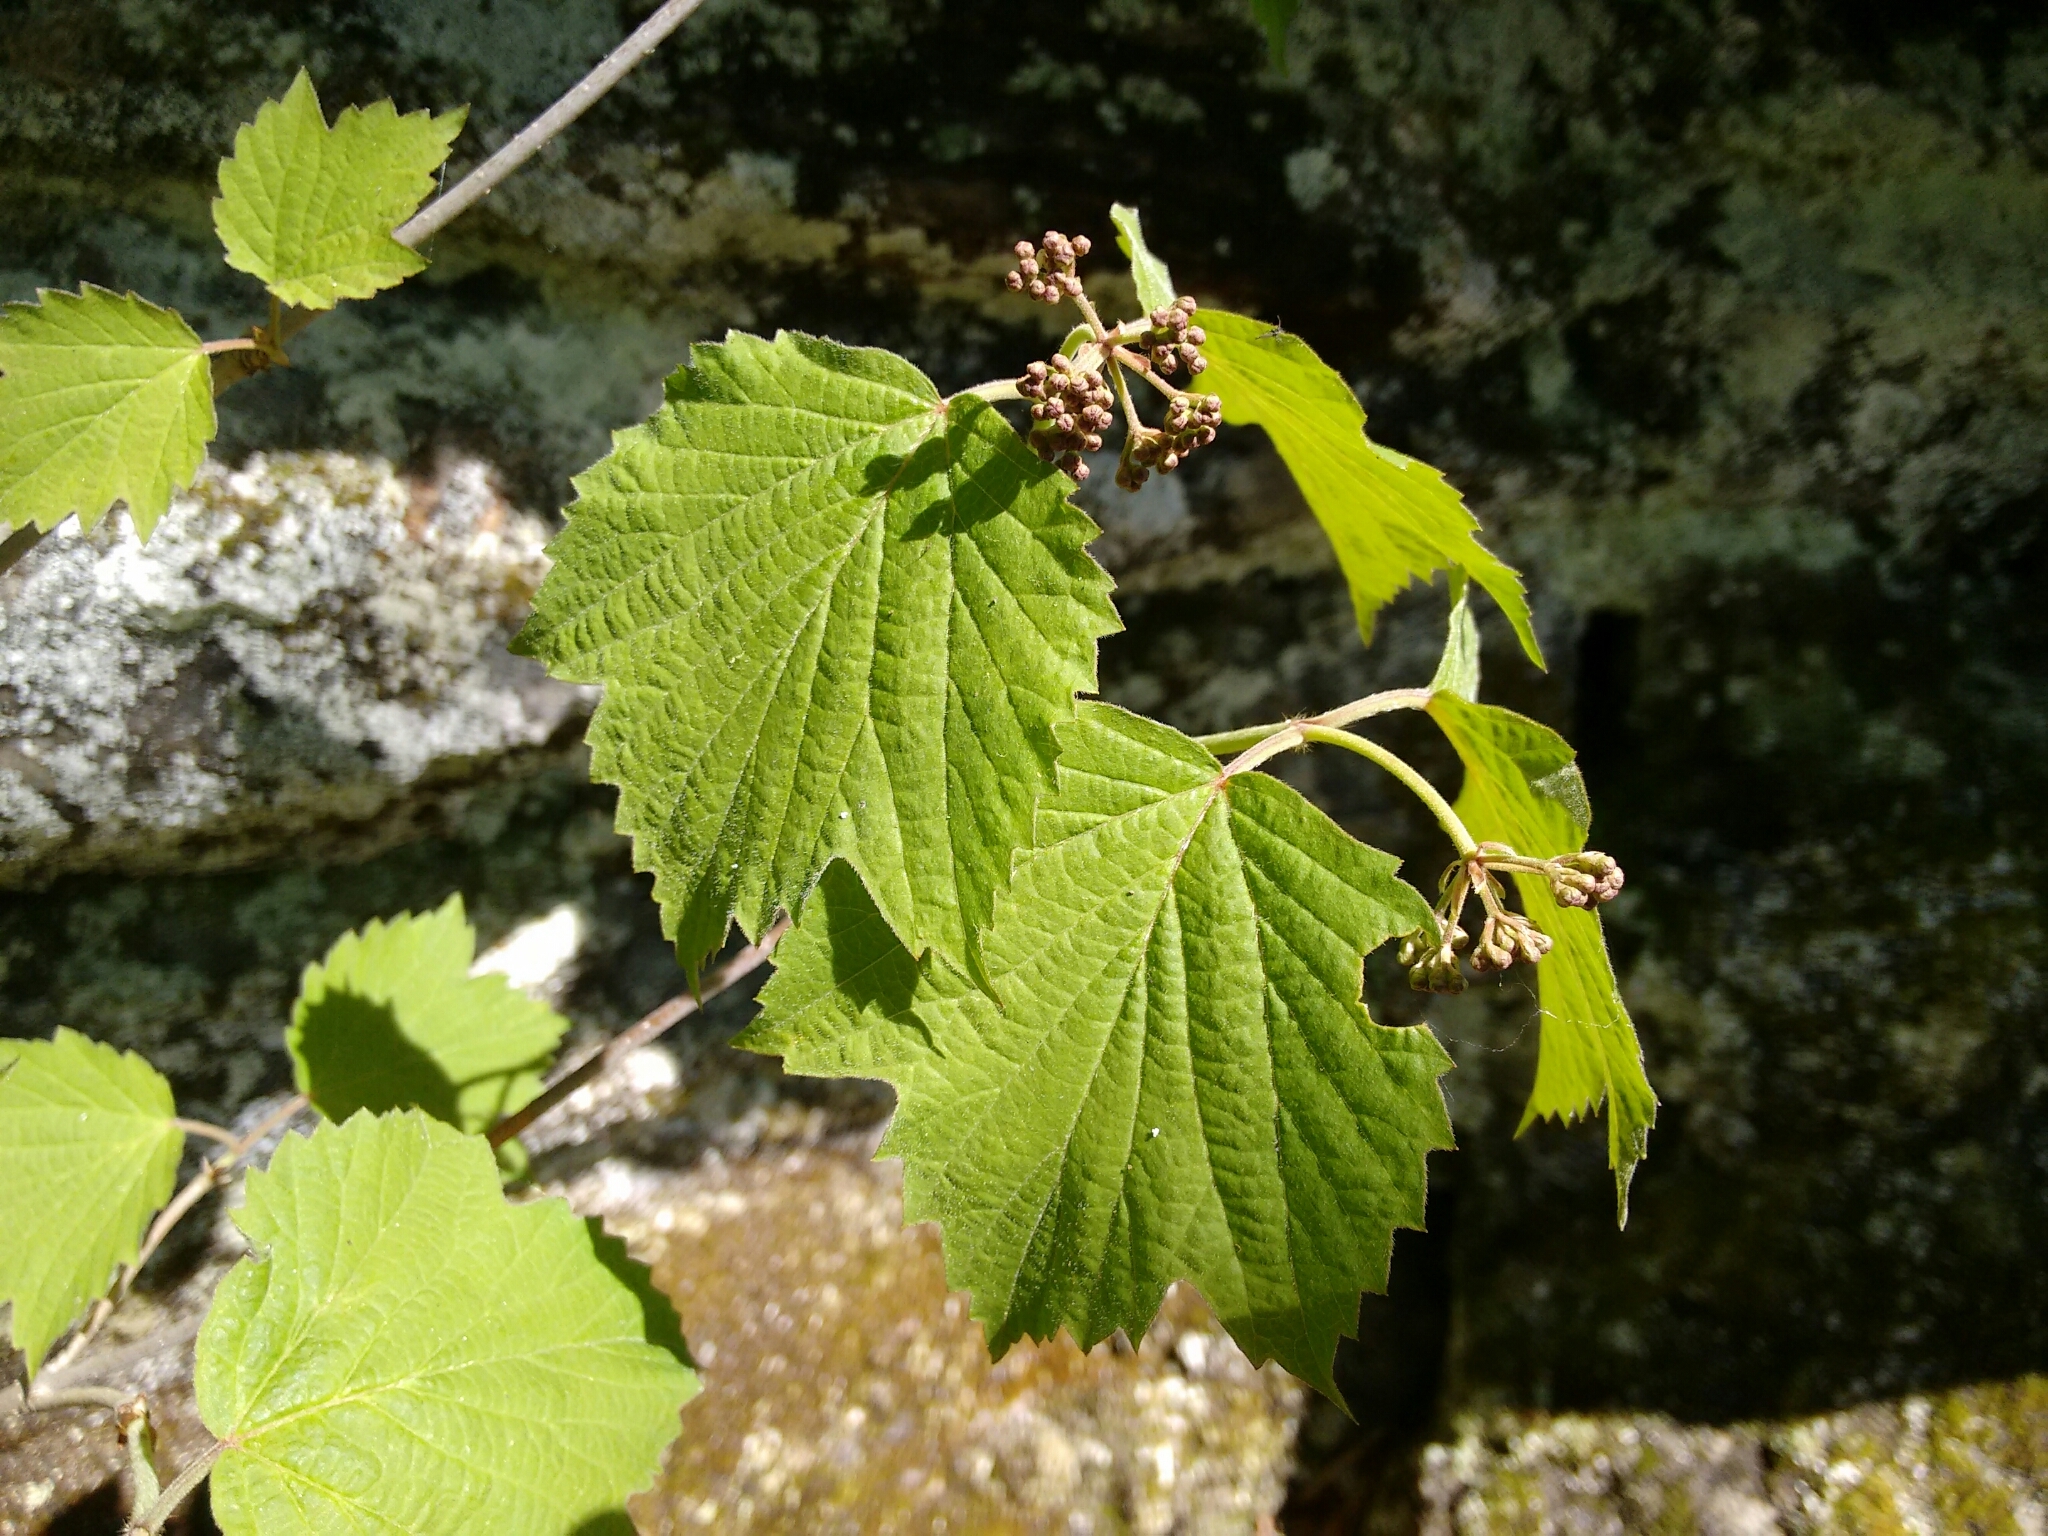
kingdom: Plantae
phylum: Tracheophyta
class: Magnoliopsida
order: Dipsacales
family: Viburnaceae
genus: Viburnum
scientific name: Viburnum acerifolium
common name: Dockmackie
